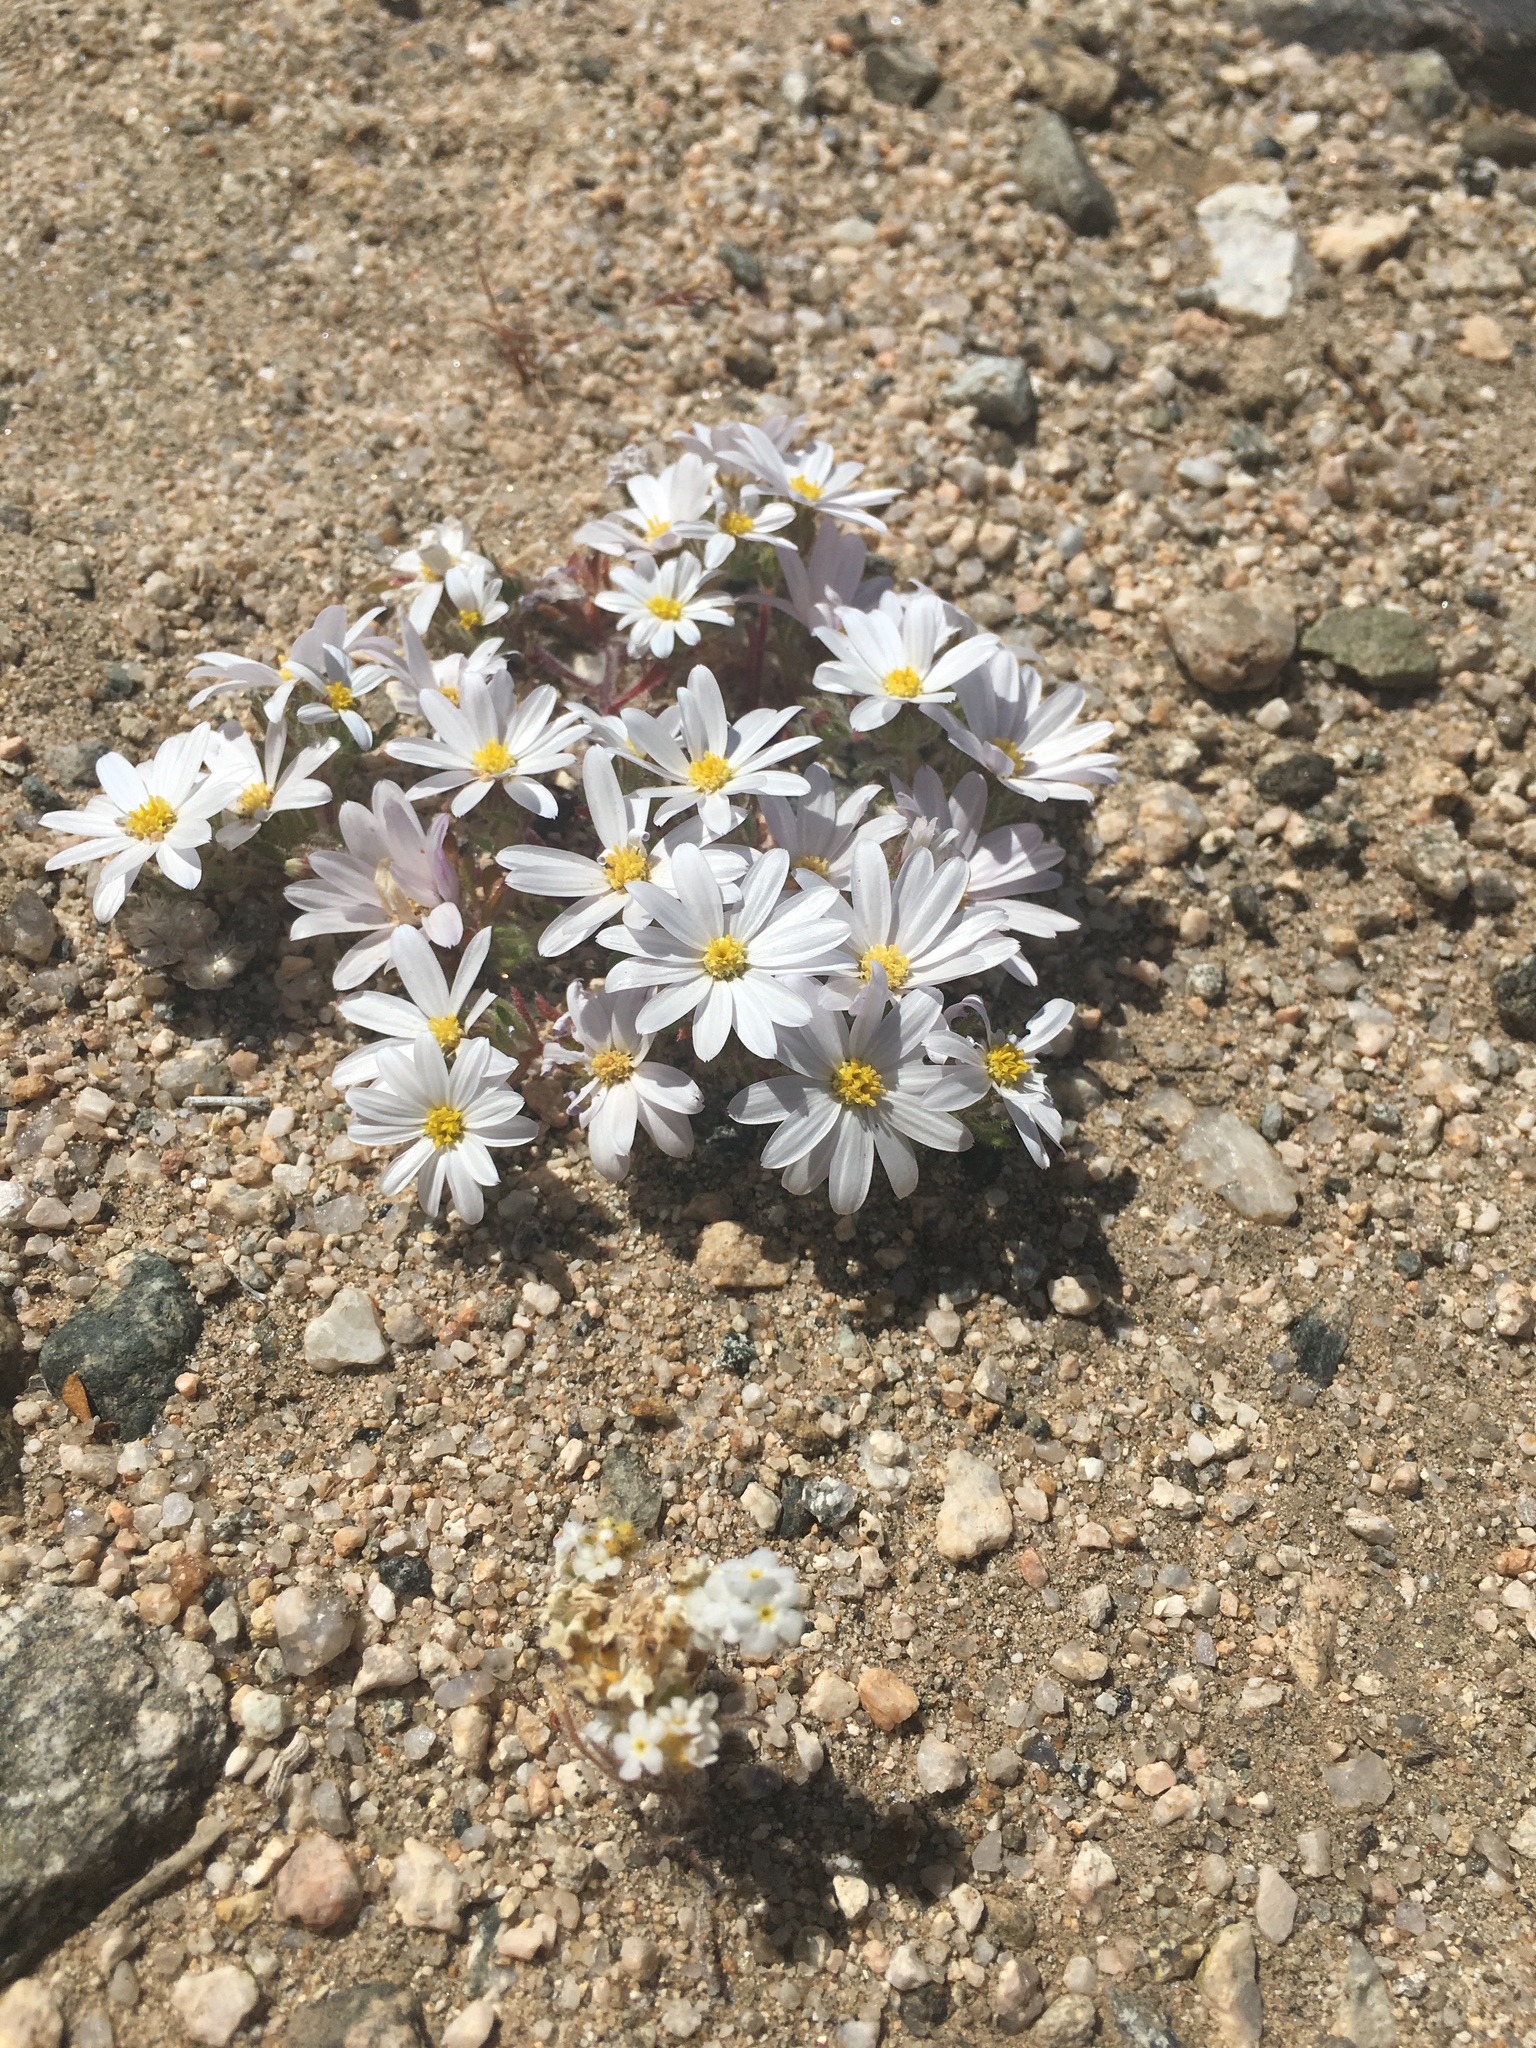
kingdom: Plantae
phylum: Tracheophyta
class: Magnoliopsida
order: Asterales
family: Asteraceae
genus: Monoptilon
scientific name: Monoptilon bellioides
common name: Bristly desertstar
